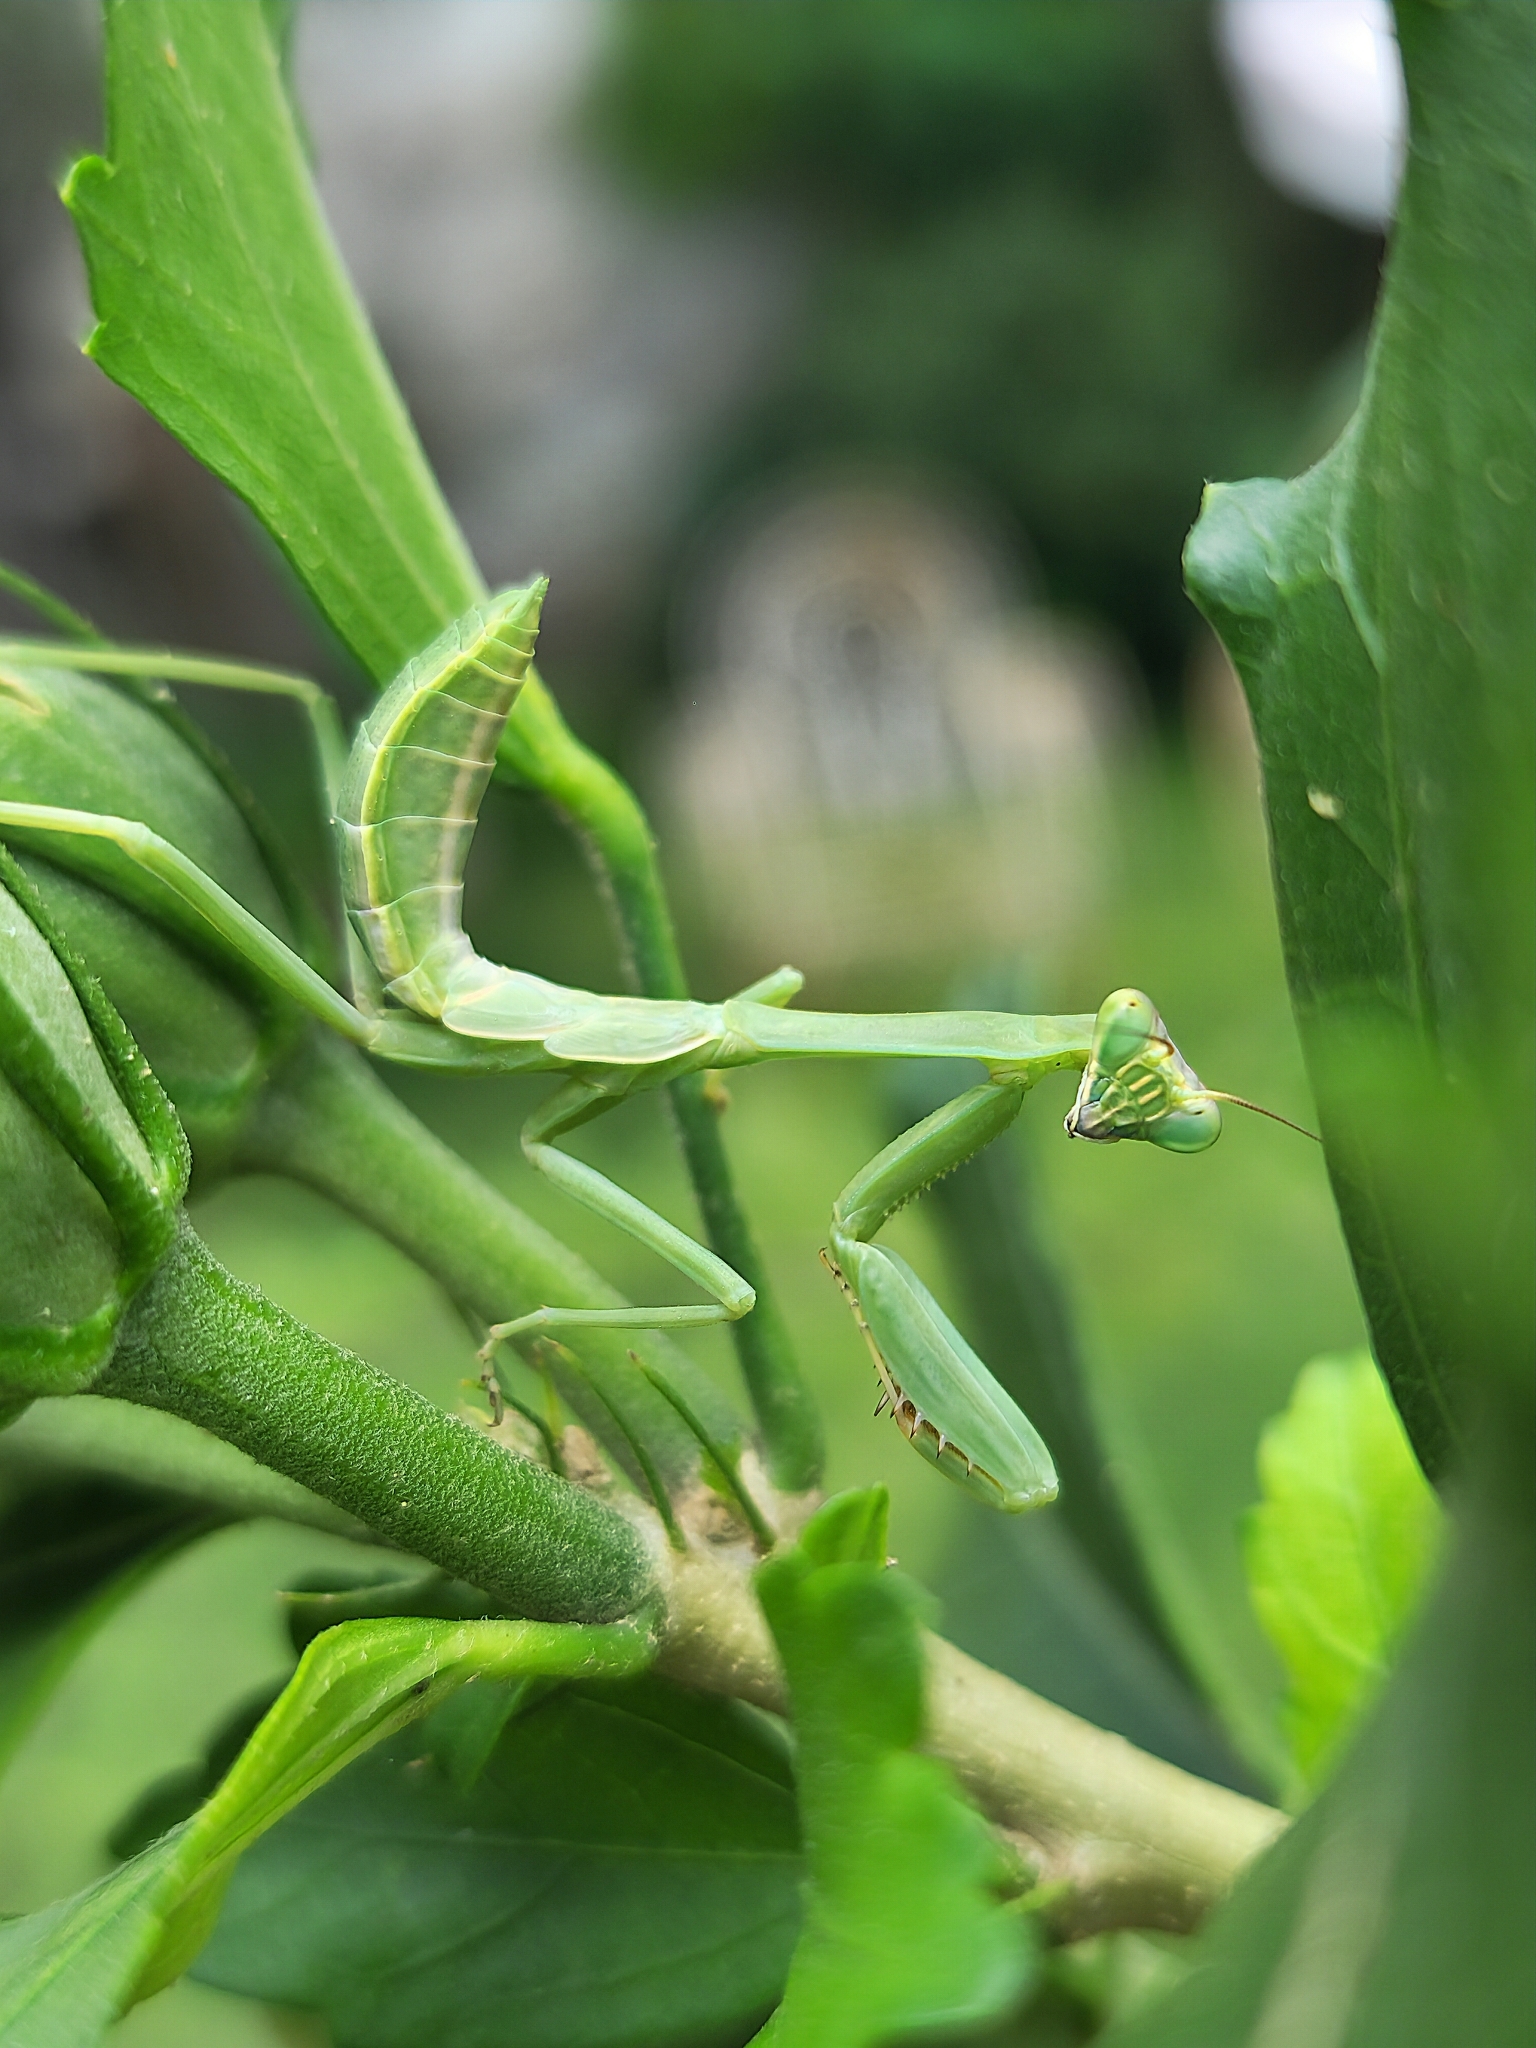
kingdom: Animalia
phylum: Arthropoda
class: Insecta
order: Mantodea
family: Mantidae
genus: Stagmatoptera
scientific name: Stagmatoptera hyaloptera
